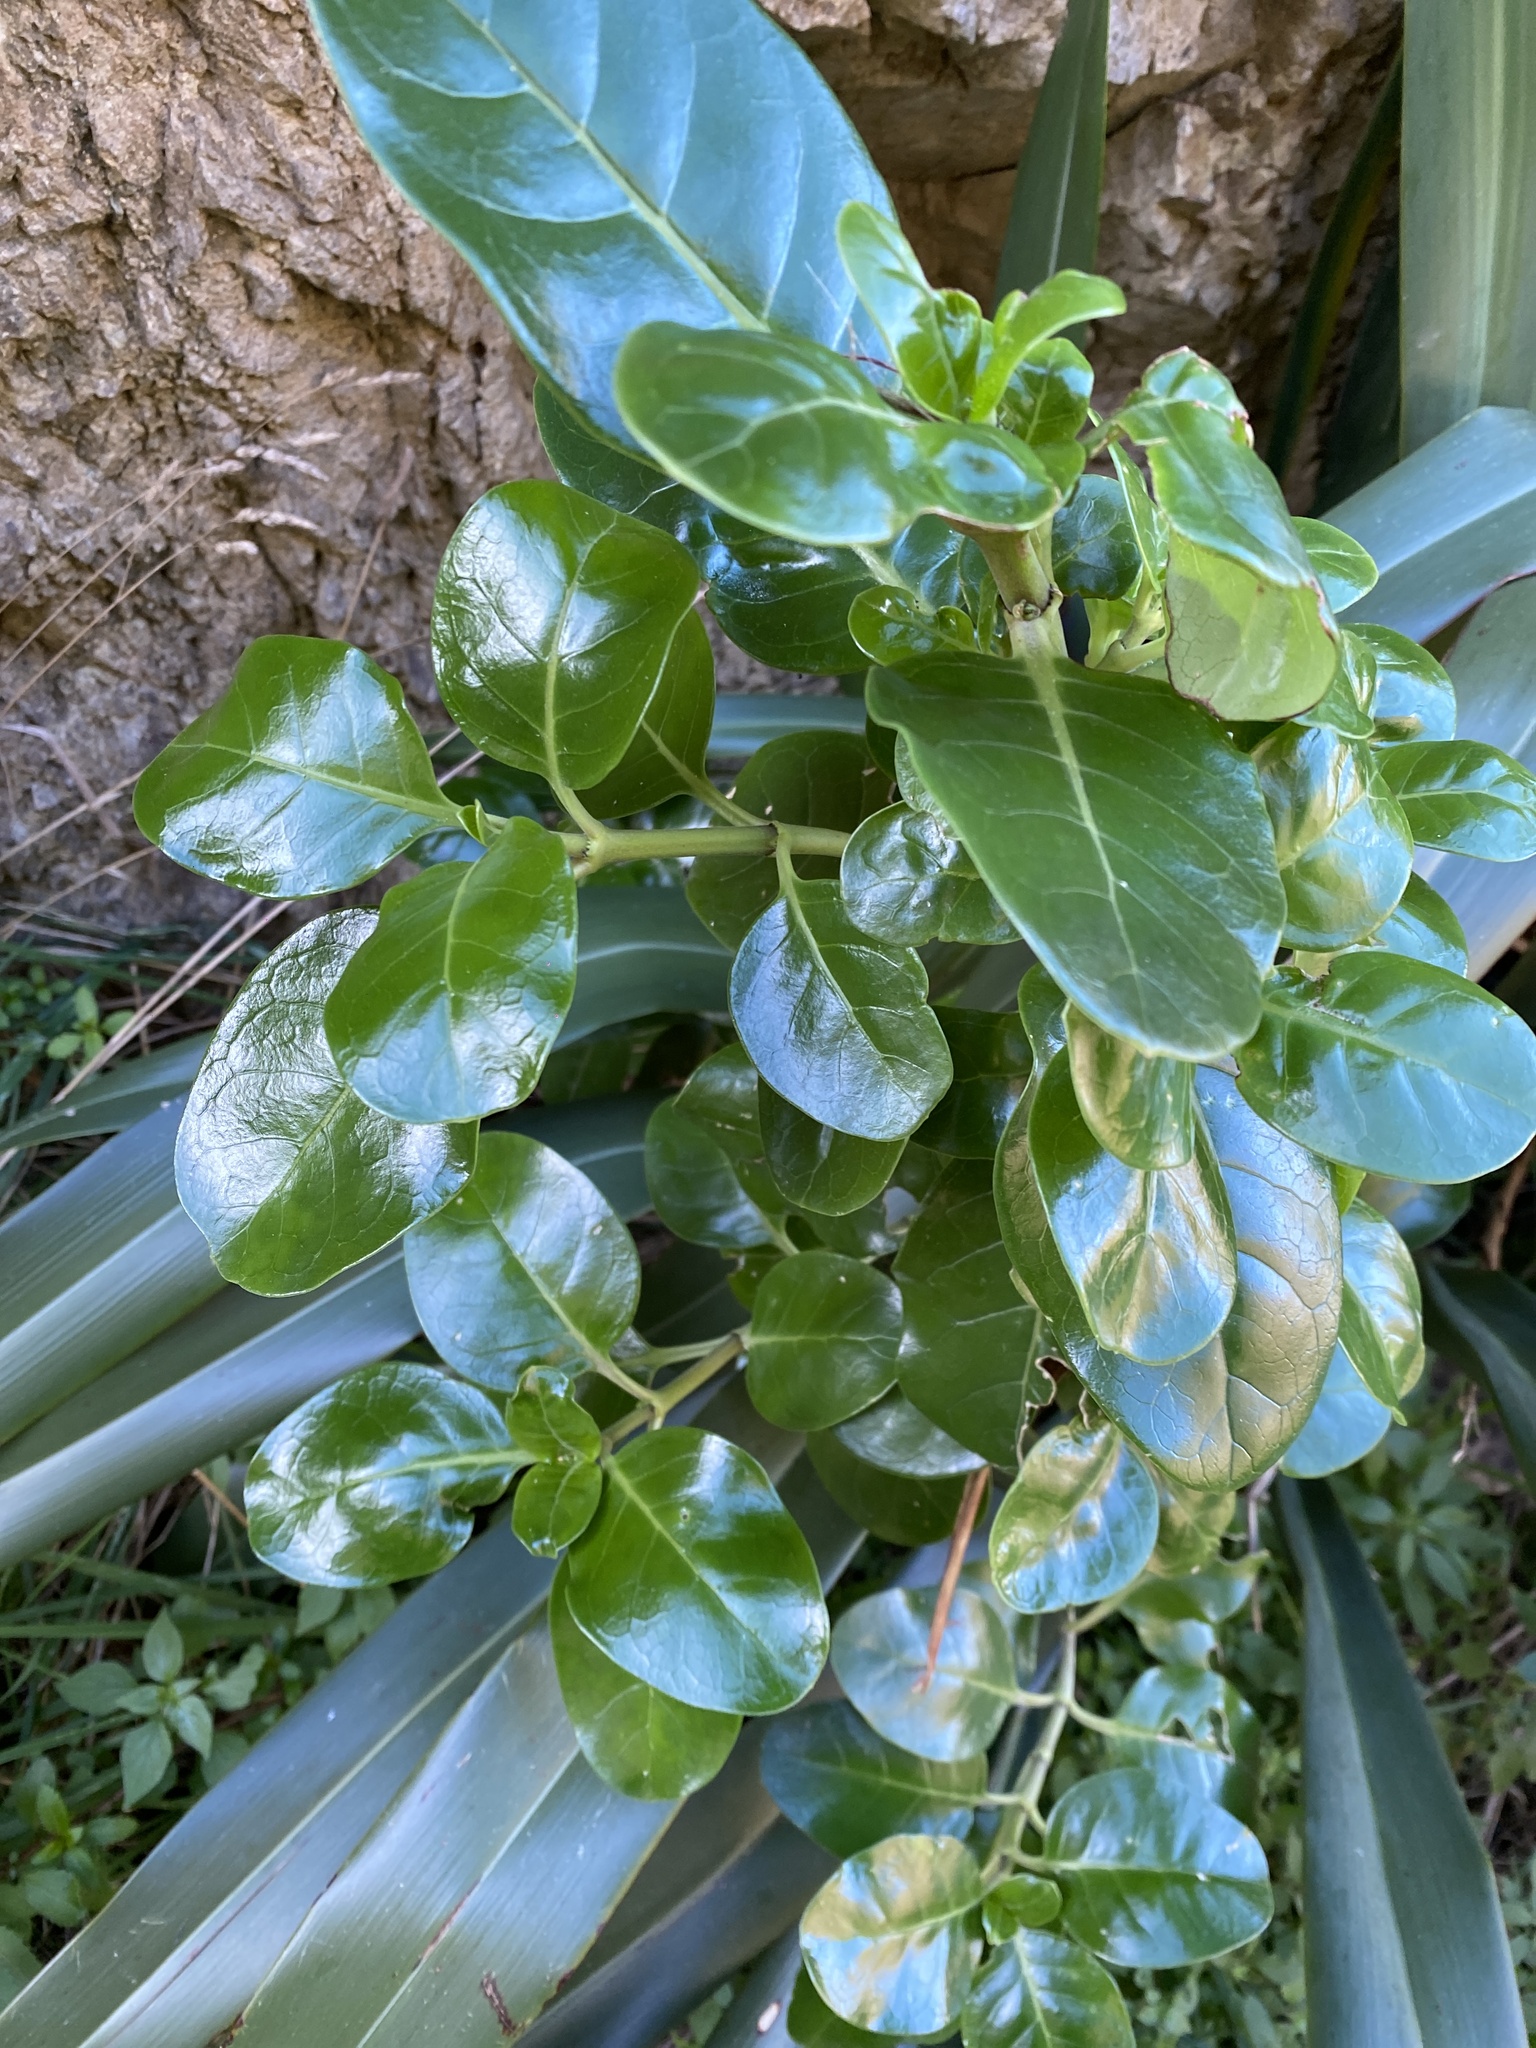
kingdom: Plantae
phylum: Tracheophyta
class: Magnoliopsida
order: Gentianales
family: Rubiaceae
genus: Coprosma
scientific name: Coprosma repens
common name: Tree bedstraw
